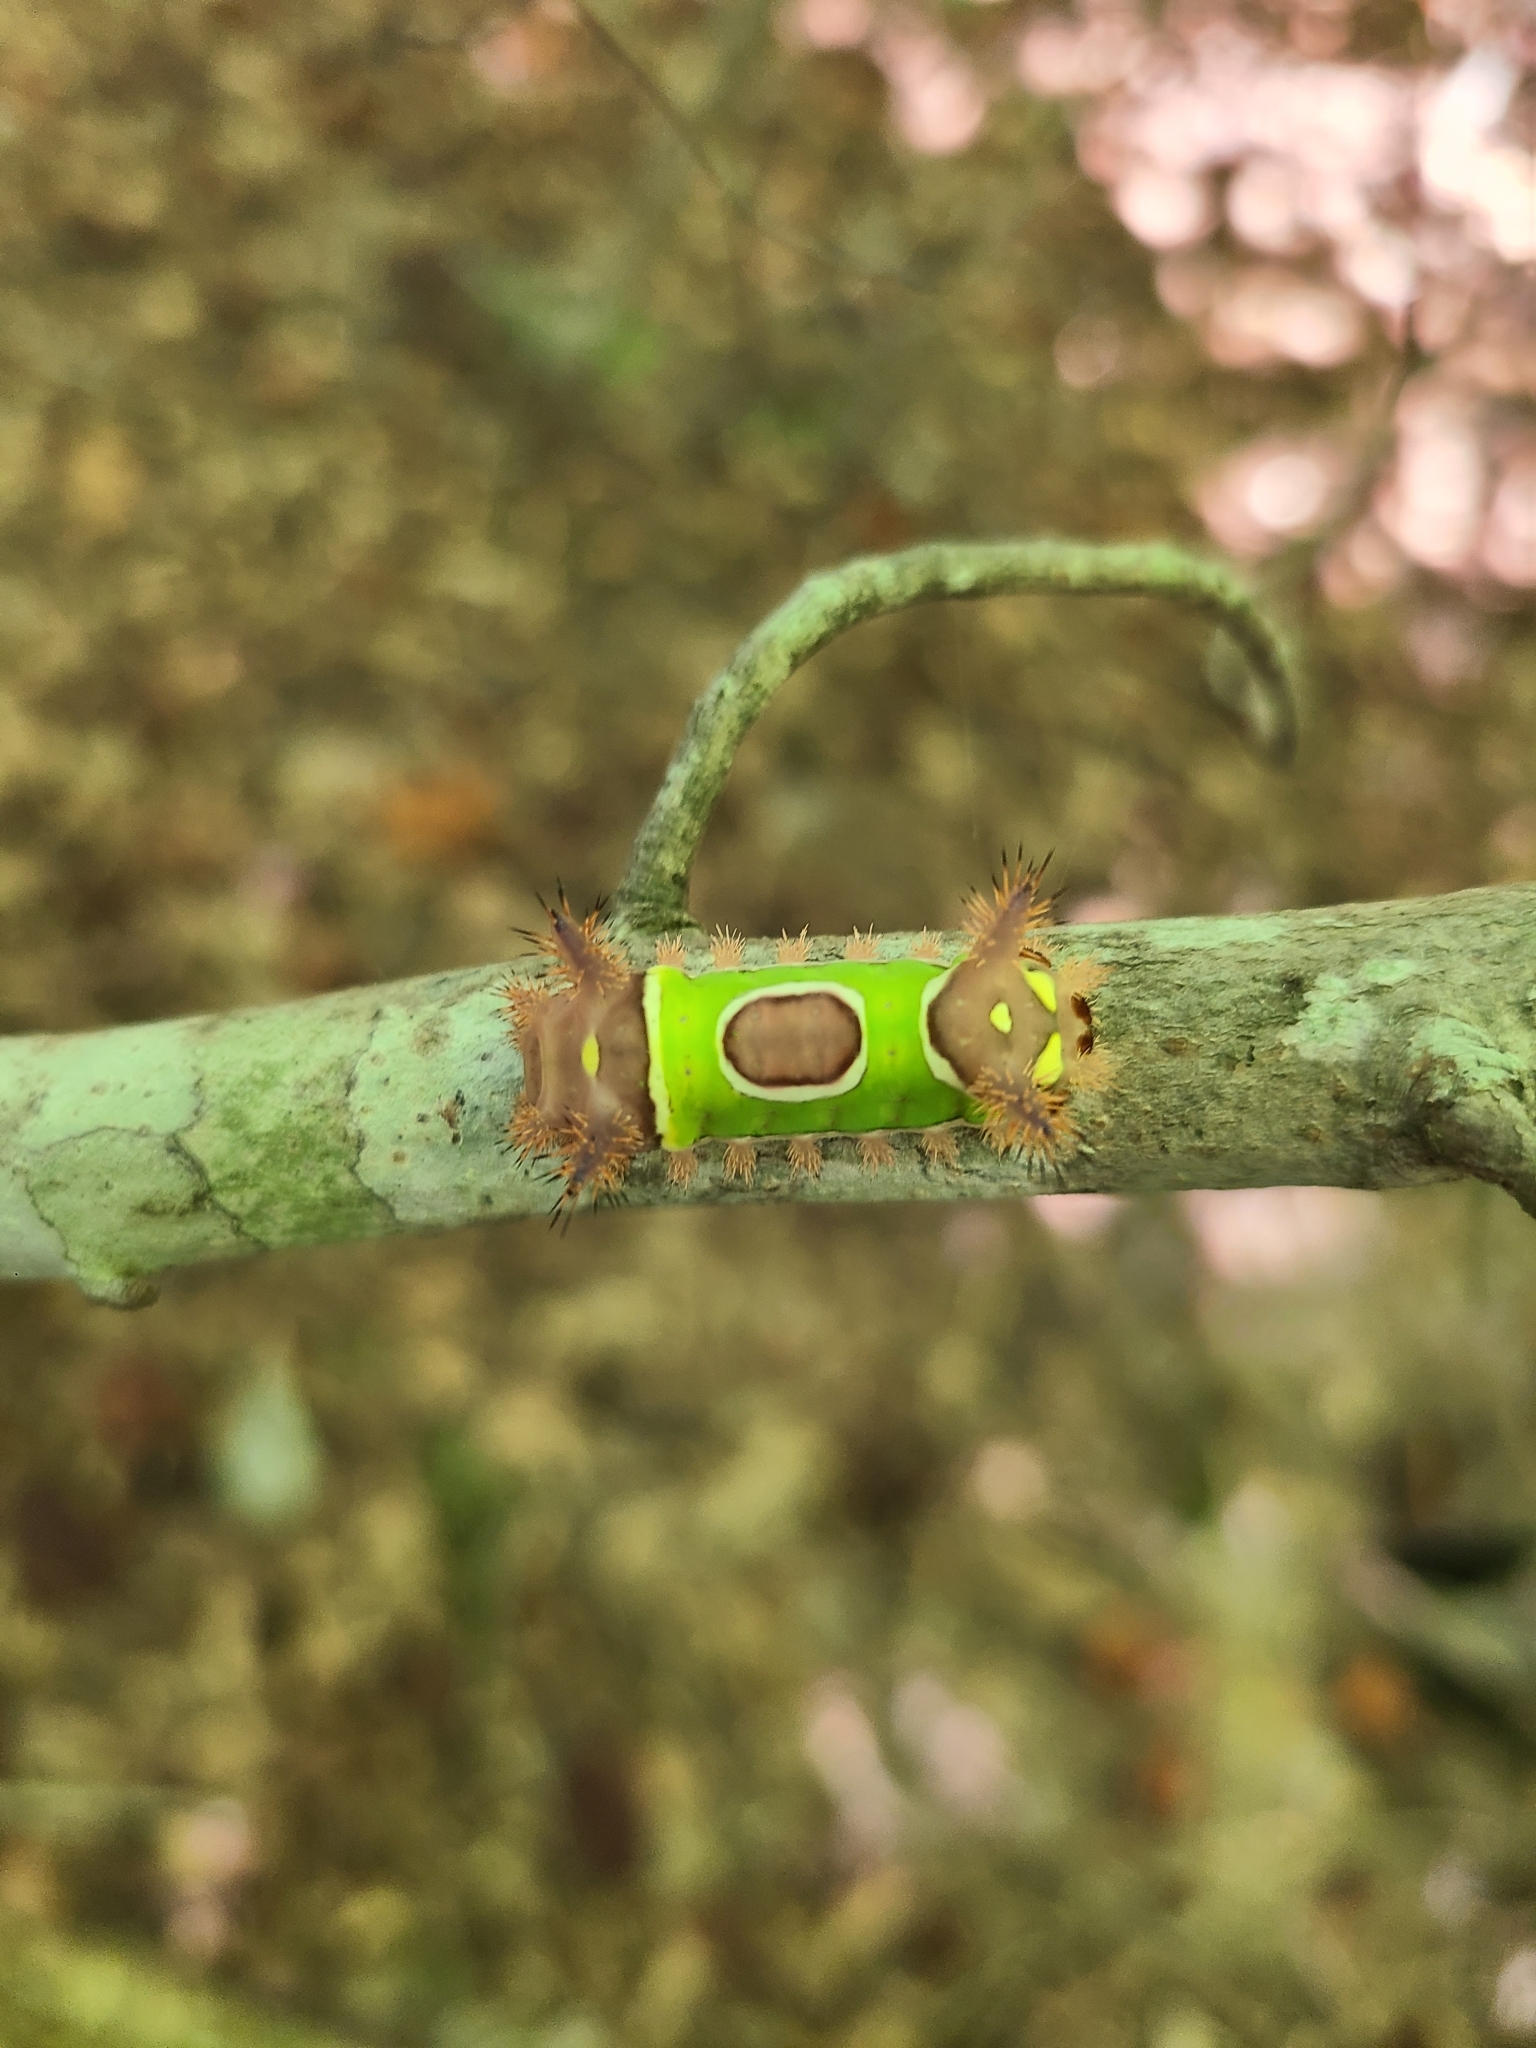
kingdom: Animalia
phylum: Arthropoda
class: Insecta
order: Lepidoptera
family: Limacodidae
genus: Acharia
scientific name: Acharia stimulea
